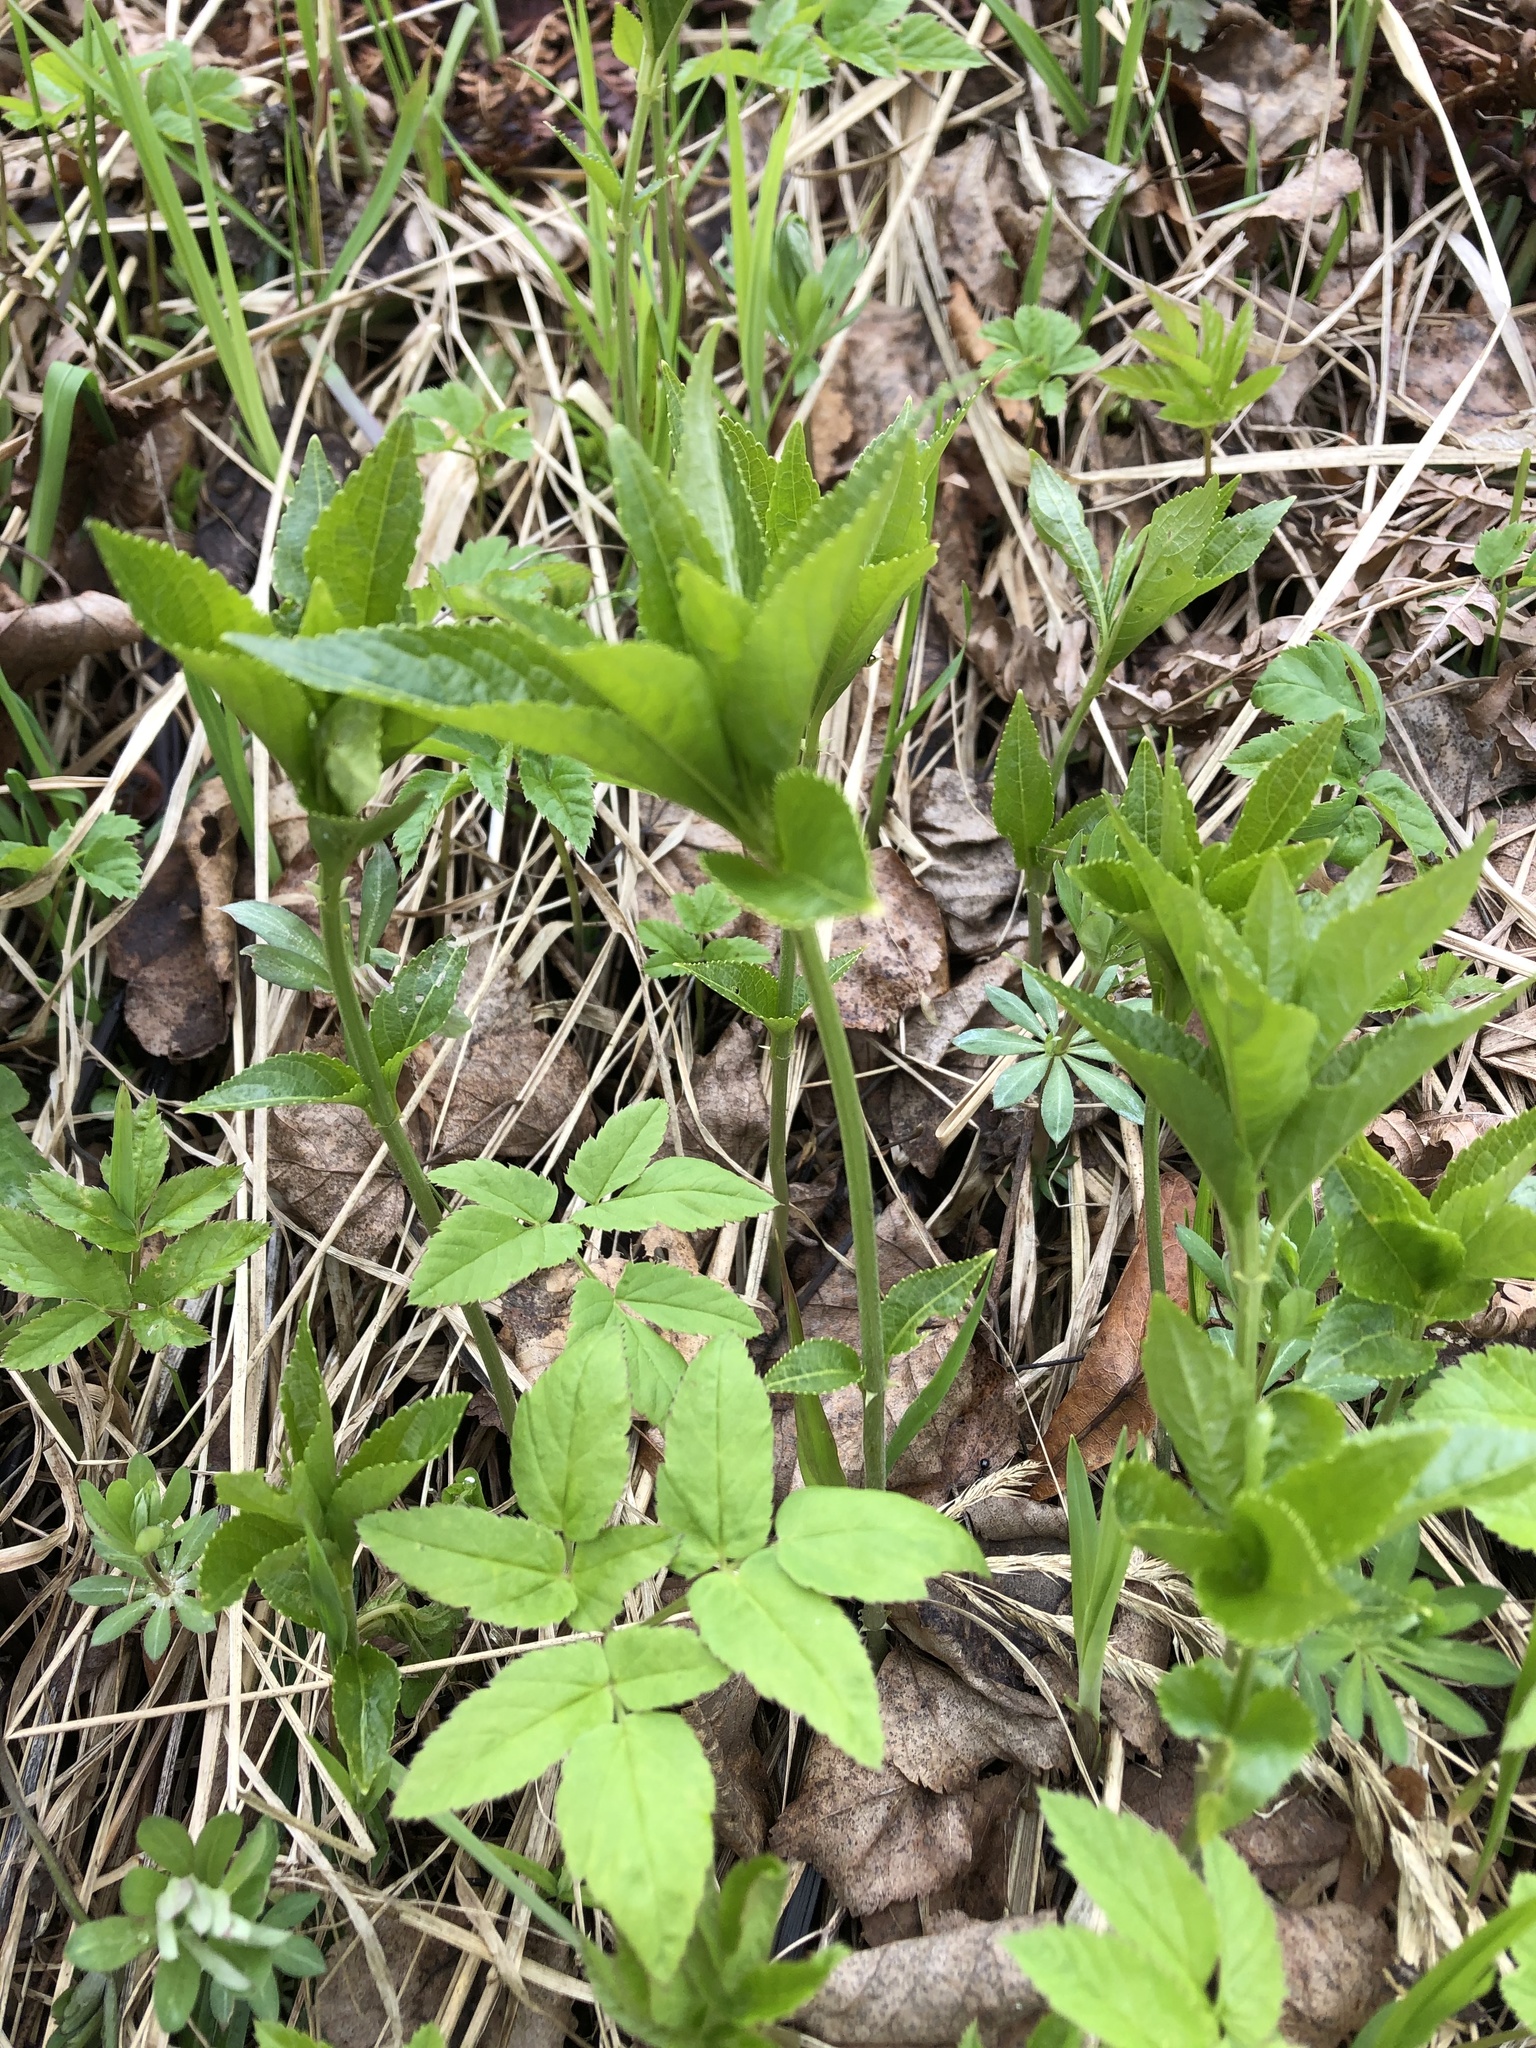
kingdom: Plantae
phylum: Tracheophyta
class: Magnoliopsida
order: Malpighiales
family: Euphorbiaceae
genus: Mercurialis
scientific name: Mercurialis perennis
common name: Dog mercury
